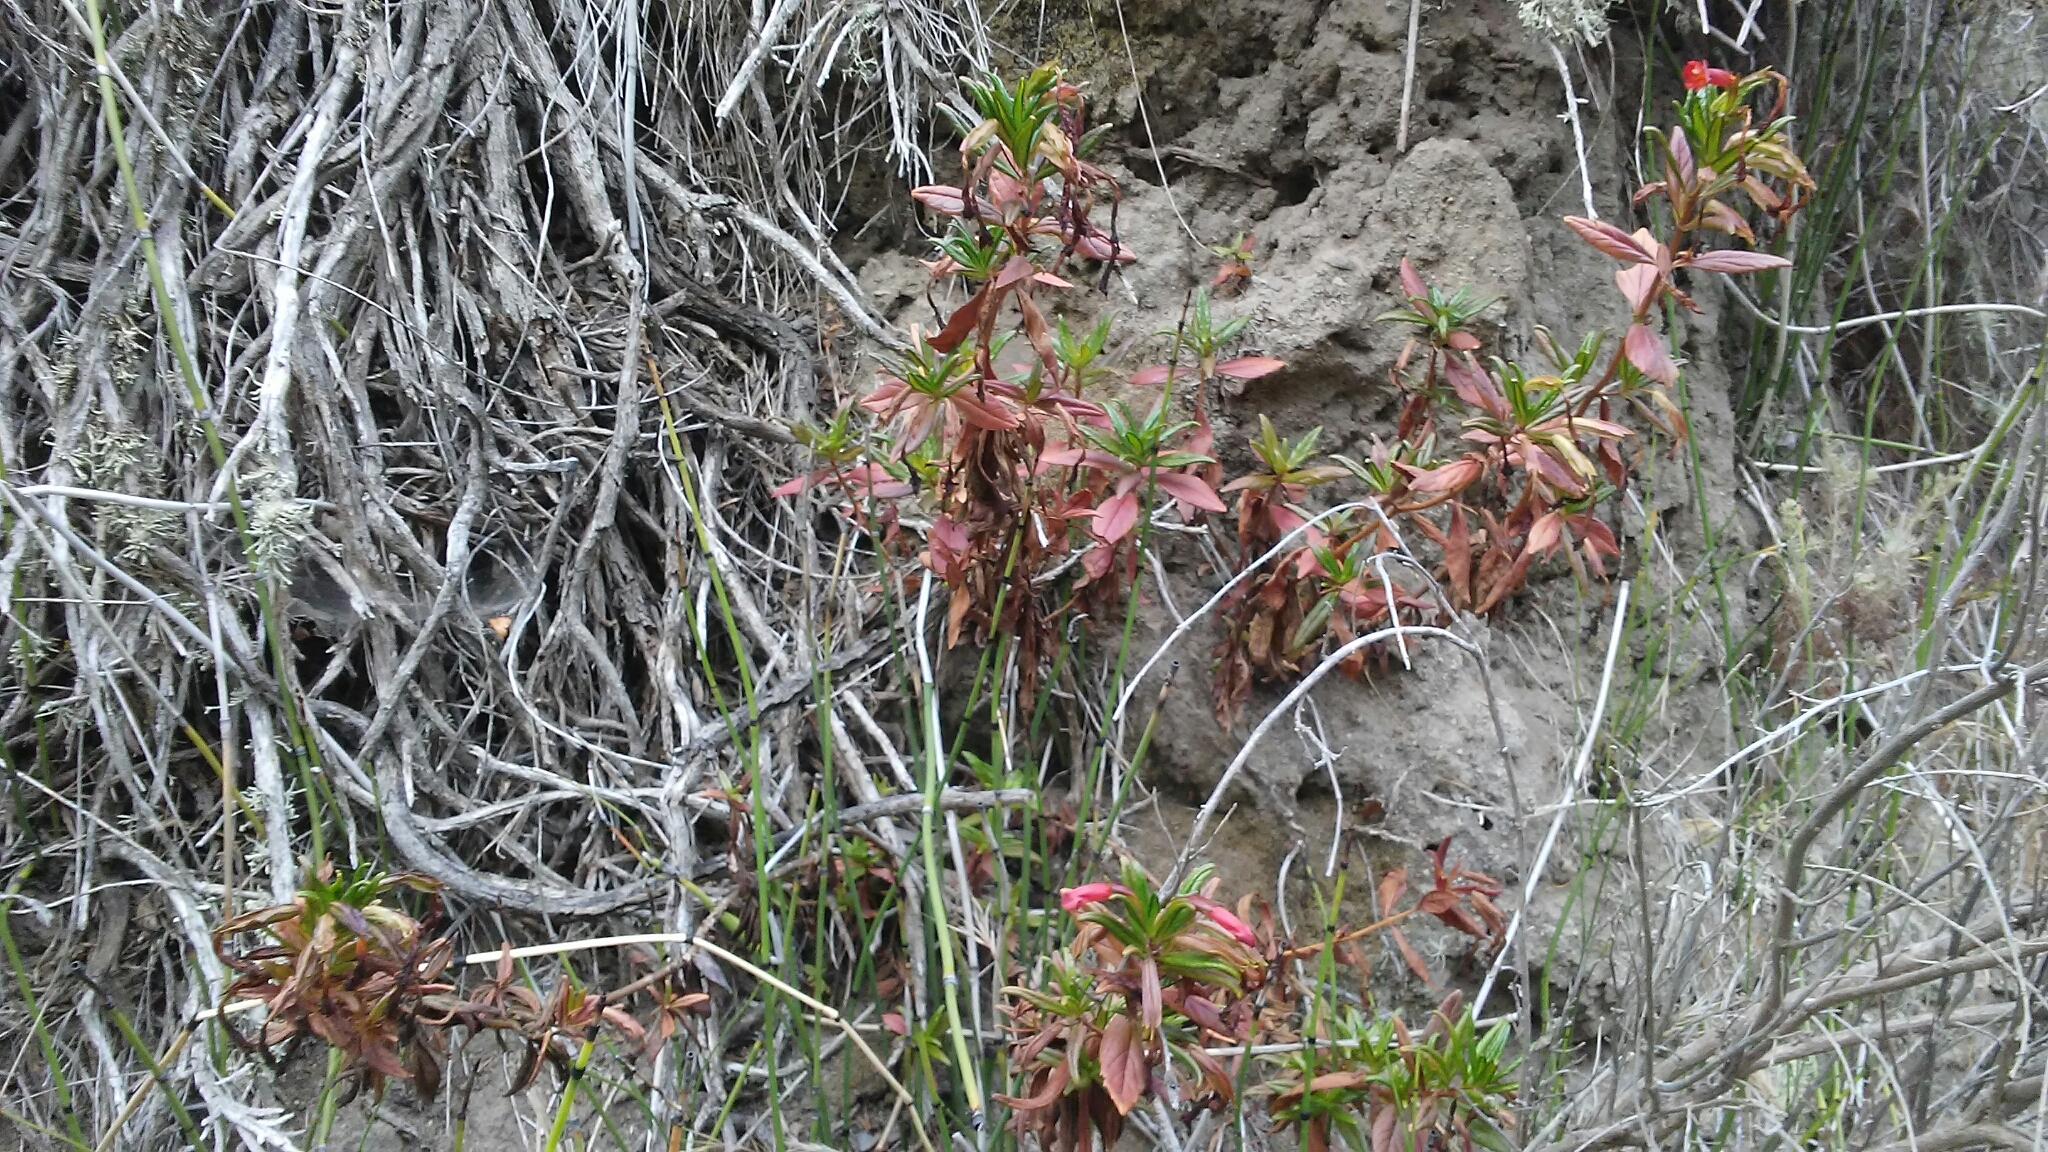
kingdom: Plantae
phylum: Tracheophyta
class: Magnoliopsida
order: Lamiales
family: Phrymaceae
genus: Diplacus
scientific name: Diplacus parviflorus
